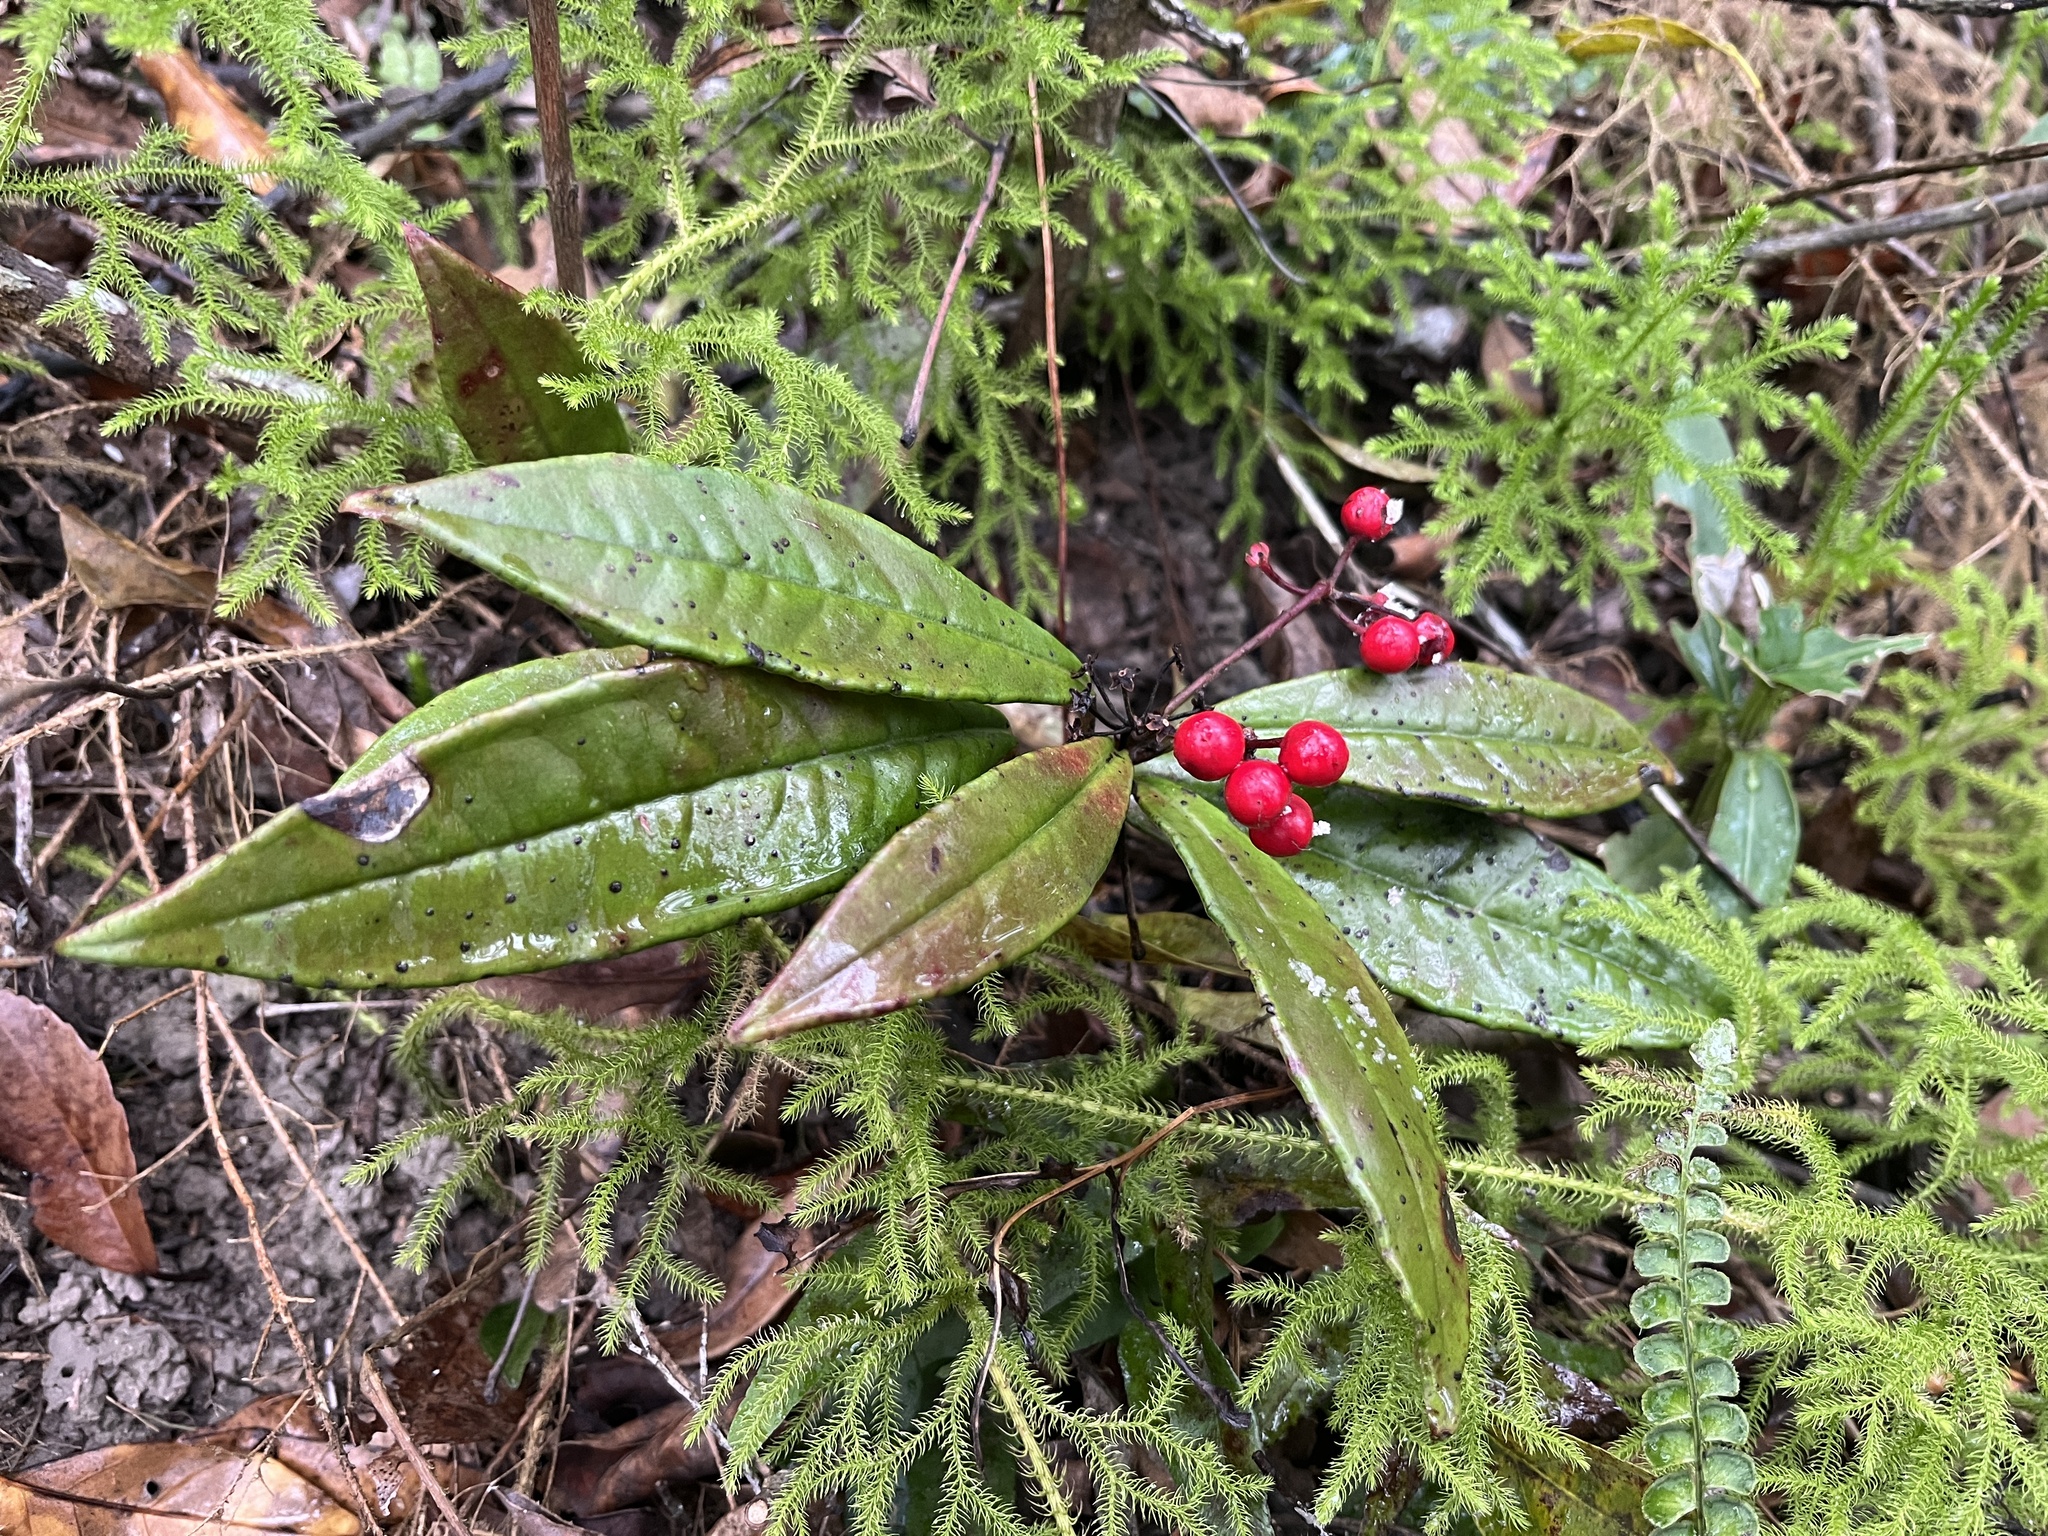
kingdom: Plantae
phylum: Tracheophyta
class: Magnoliopsida
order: Ericales
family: Primulaceae
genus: Ardisia
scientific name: Ardisia lindleyana
